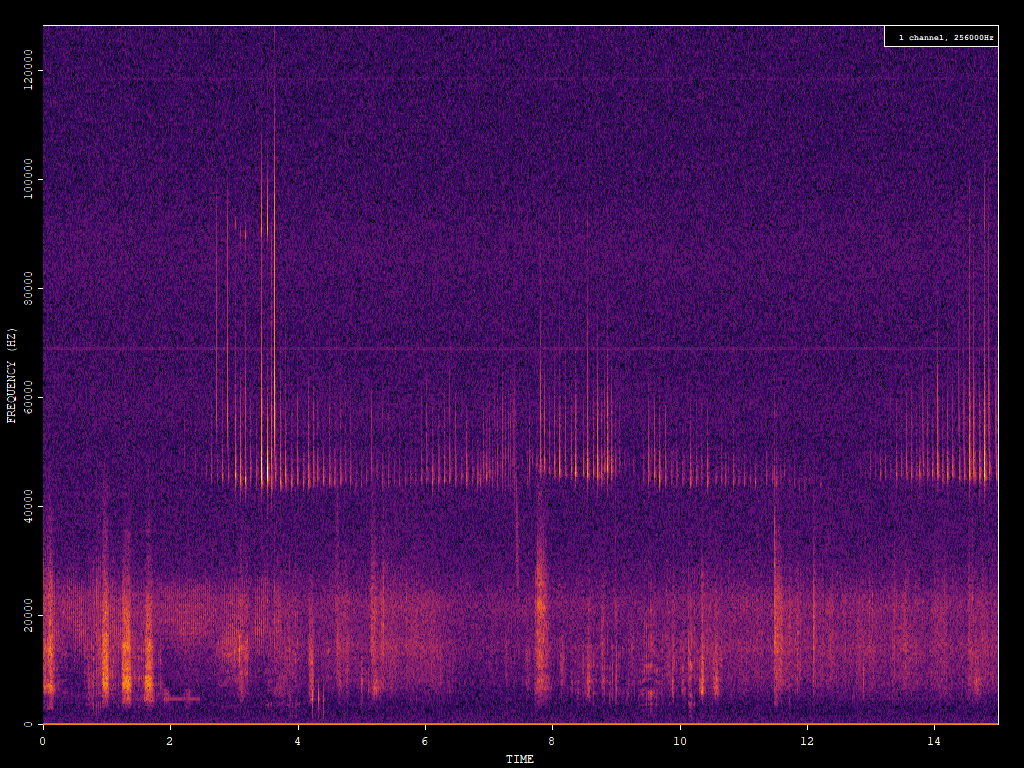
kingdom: Animalia
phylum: Chordata
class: Mammalia
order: Chiroptera
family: Vespertilionidae
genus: Pipistrellus
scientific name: Pipistrellus pipistrellus
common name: Common pipistrelle
